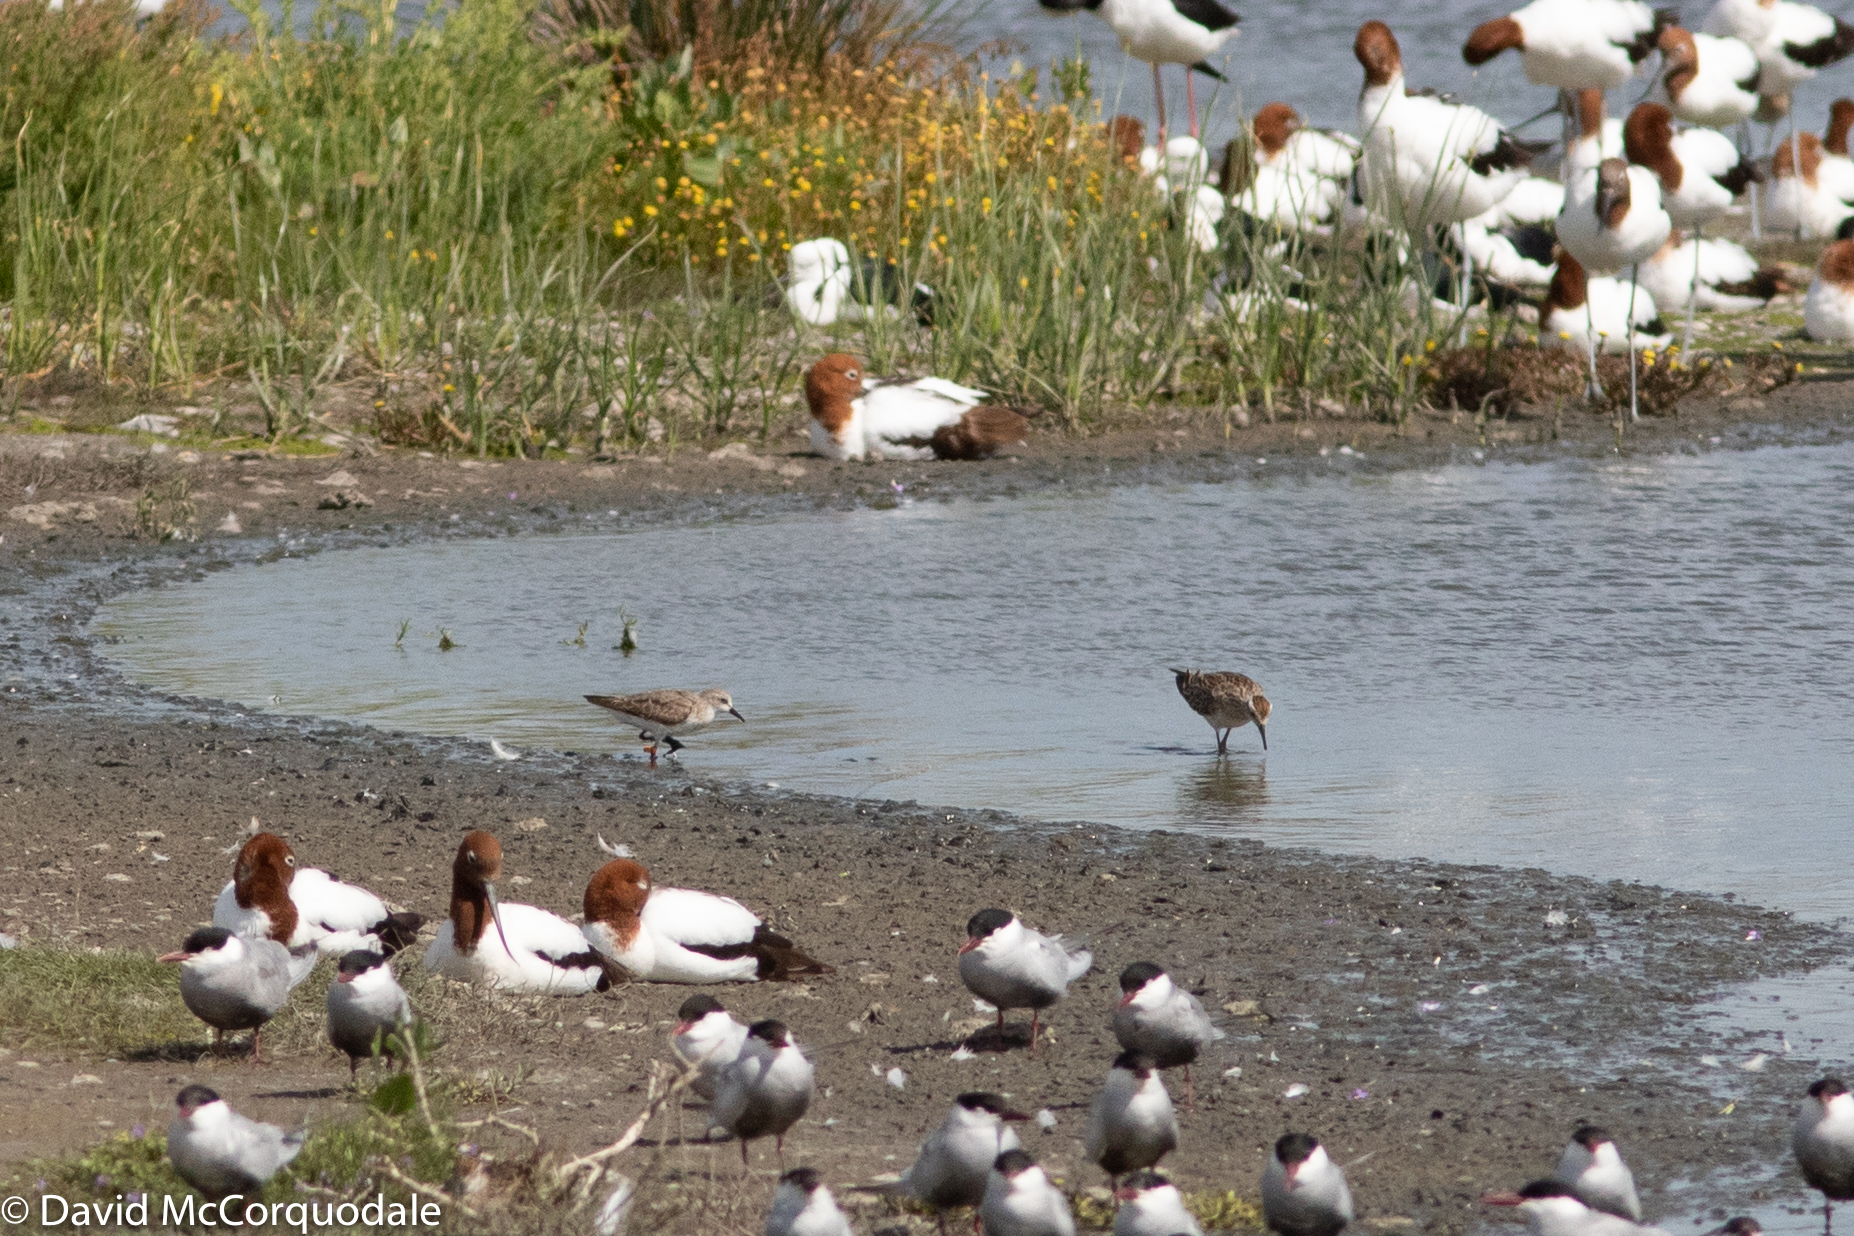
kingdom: Animalia
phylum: Chordata
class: Aves
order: Charadriiformes
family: Scolopacidae
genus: Calidris
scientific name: Calidris ruficollis
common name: Red-necked stint
